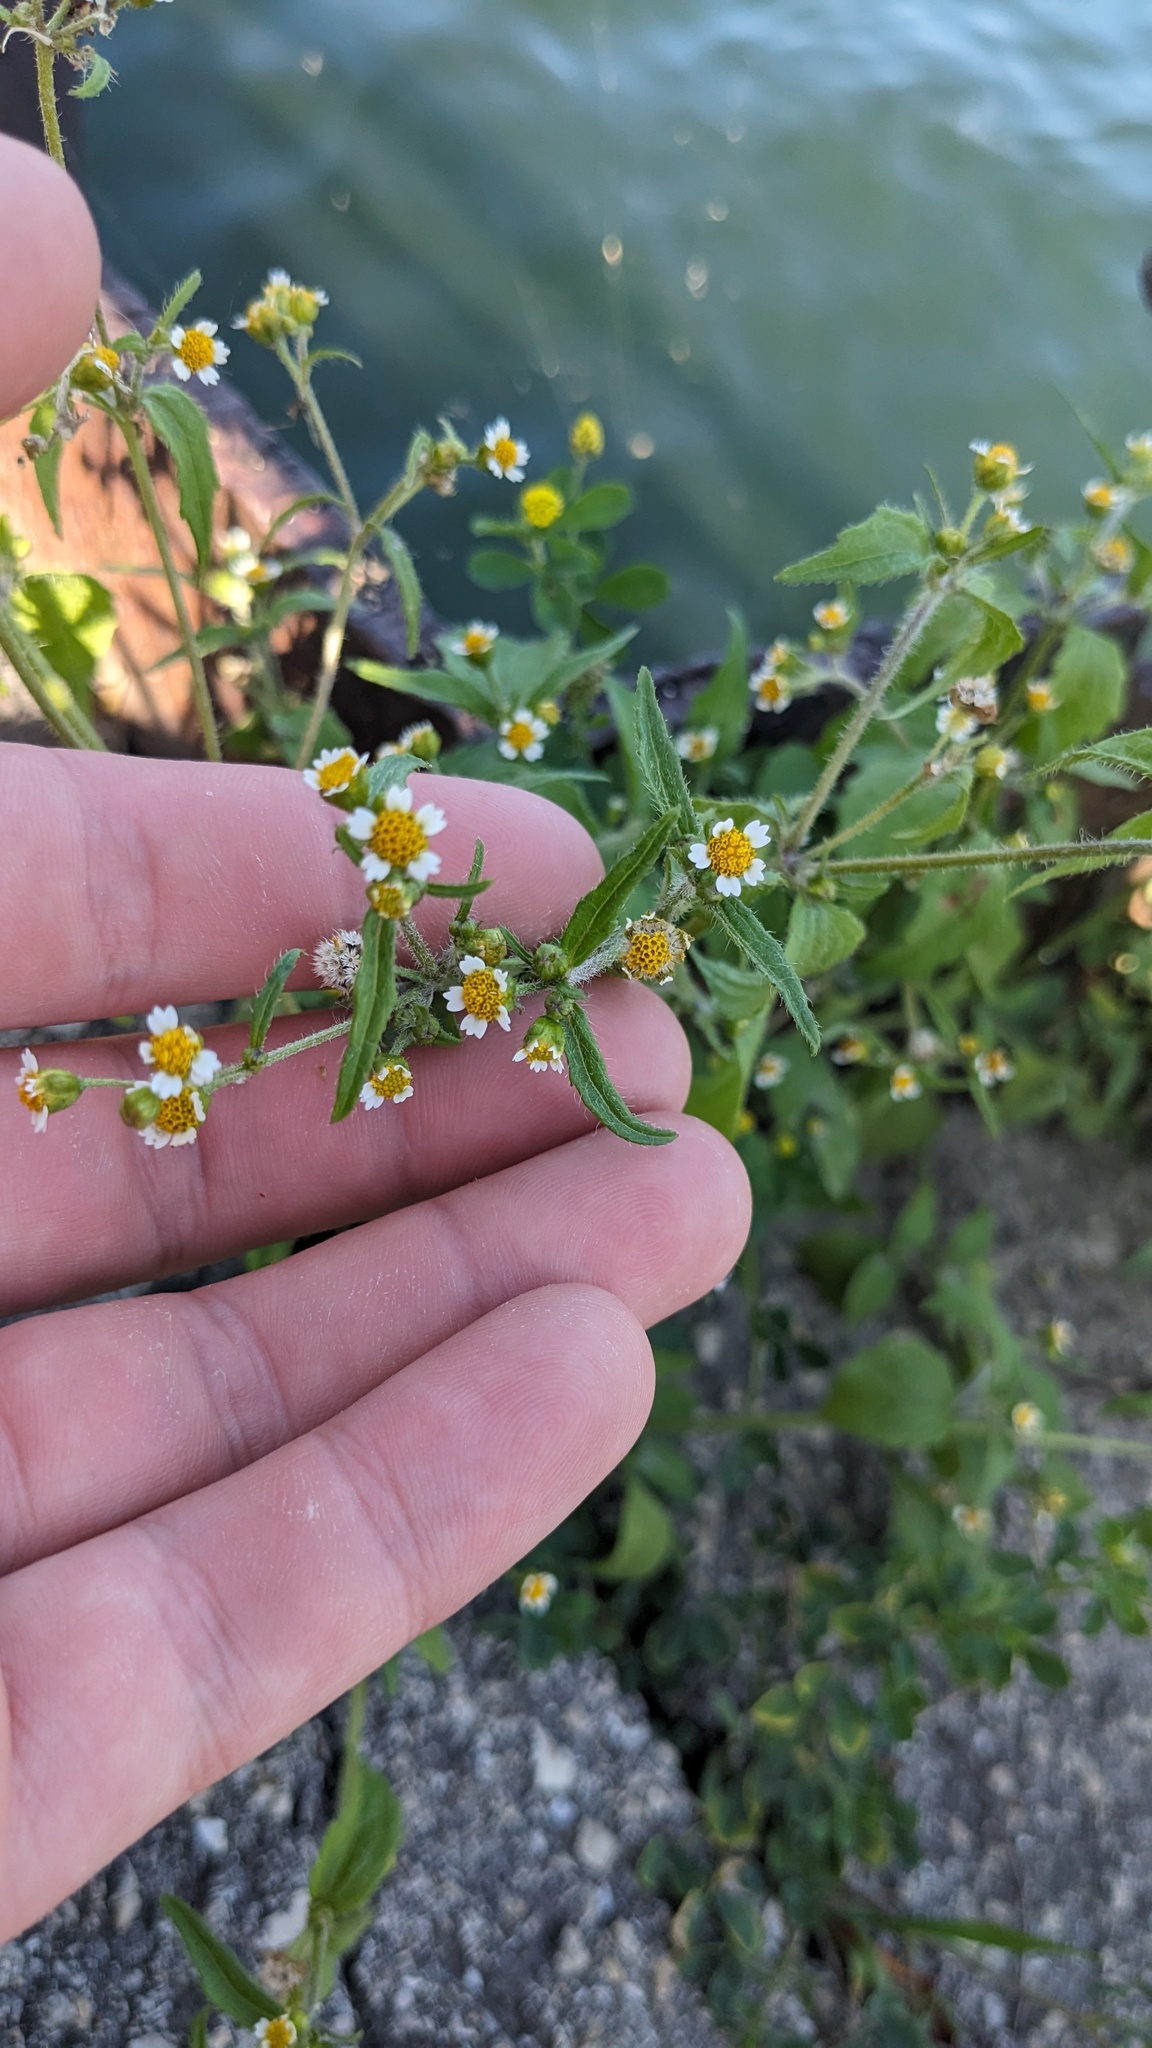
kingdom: Plantae
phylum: Tracheophyta
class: Magnoliopsida
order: Asterales
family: Asteraceae
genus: Galinsoga
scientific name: Galinsoga quadriradiata
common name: Shaggy soldier
